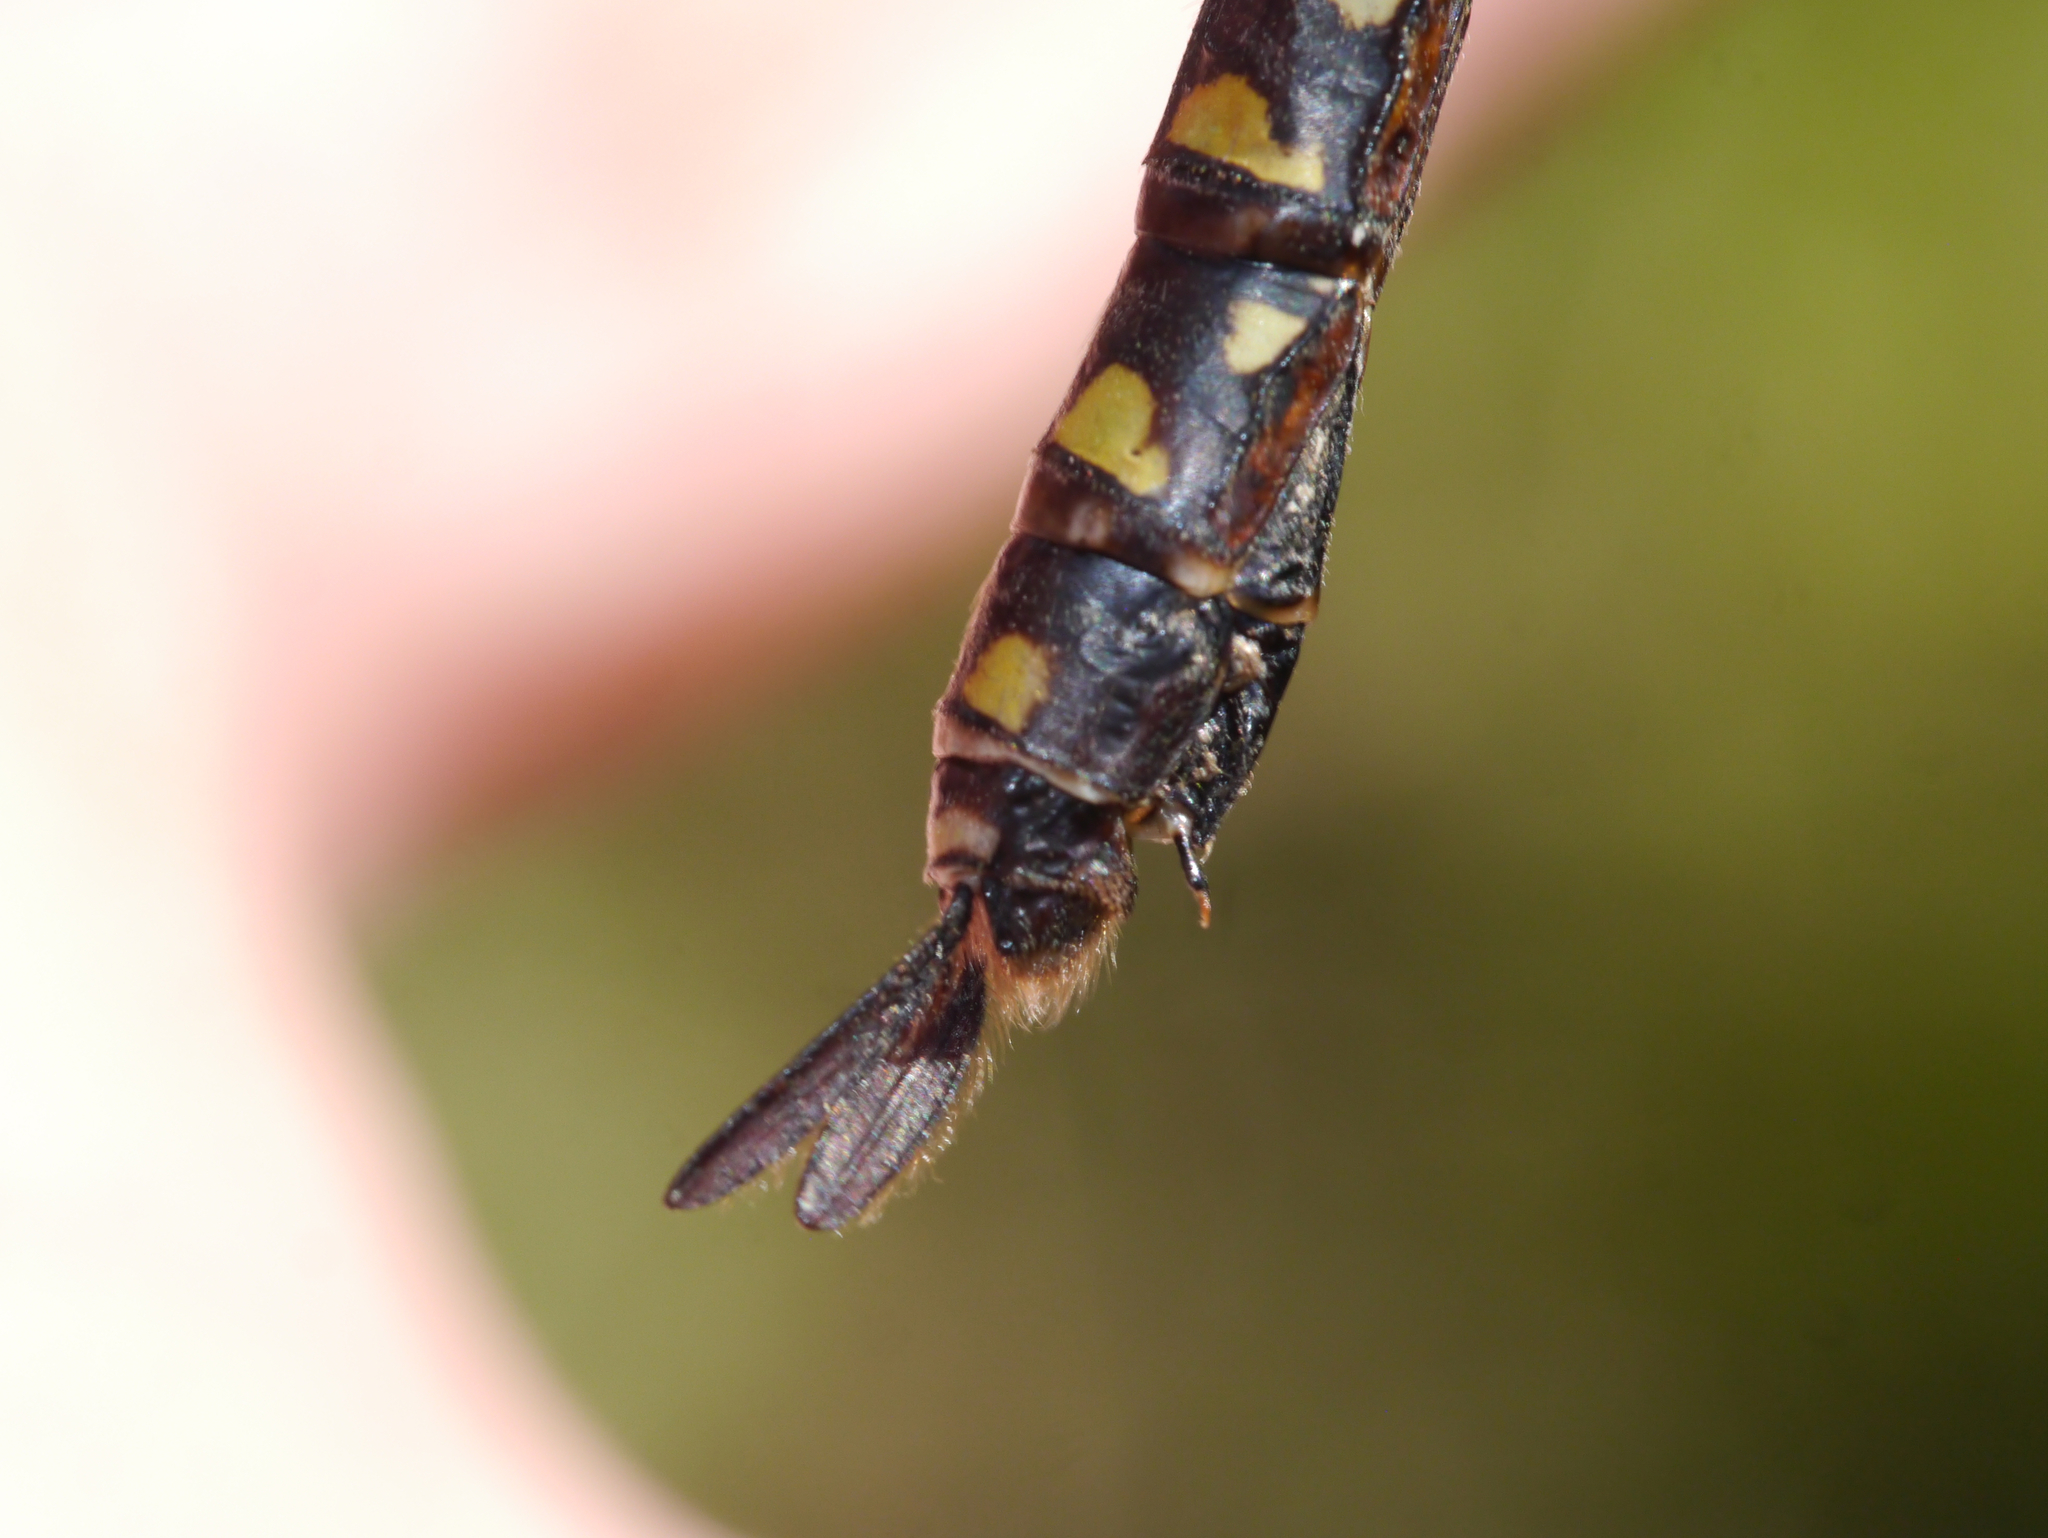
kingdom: Animalia
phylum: Arthropoda
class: Insecta
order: Odonata
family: Aeshnidae
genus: Aeshna
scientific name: Aeshna interrupta
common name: Variable darner
